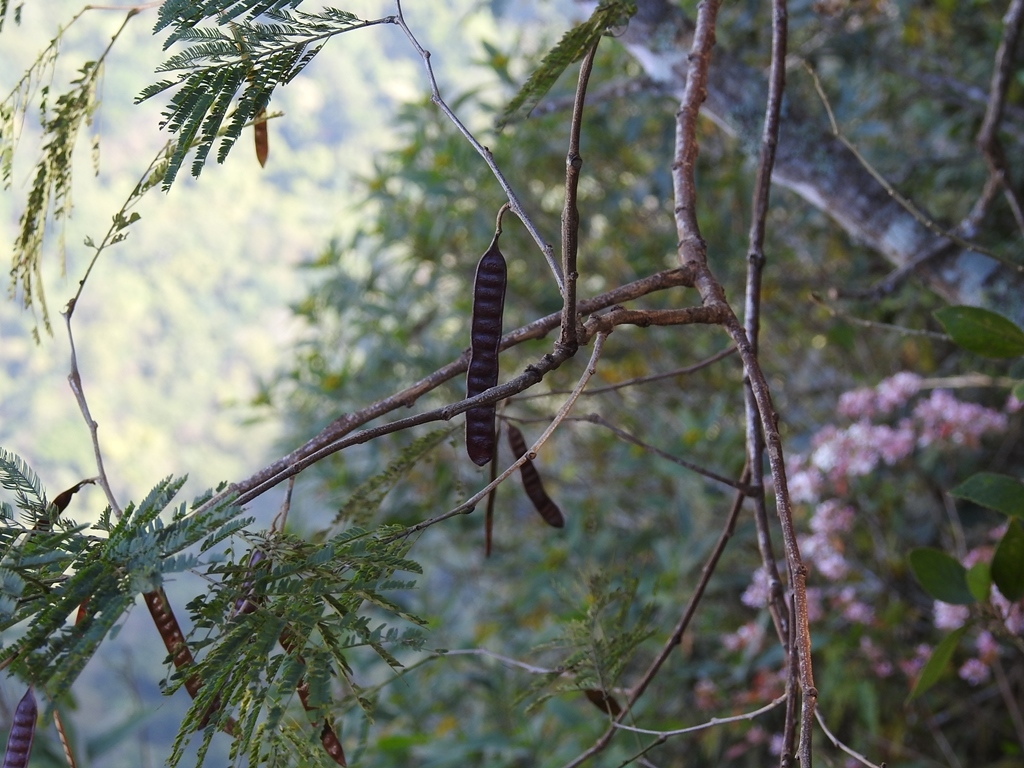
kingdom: Plantae
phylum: Tracheophyta
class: Magnoliopsida
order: Fabales
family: Fabaceae
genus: Leucaena
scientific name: Leucaena collinsii
